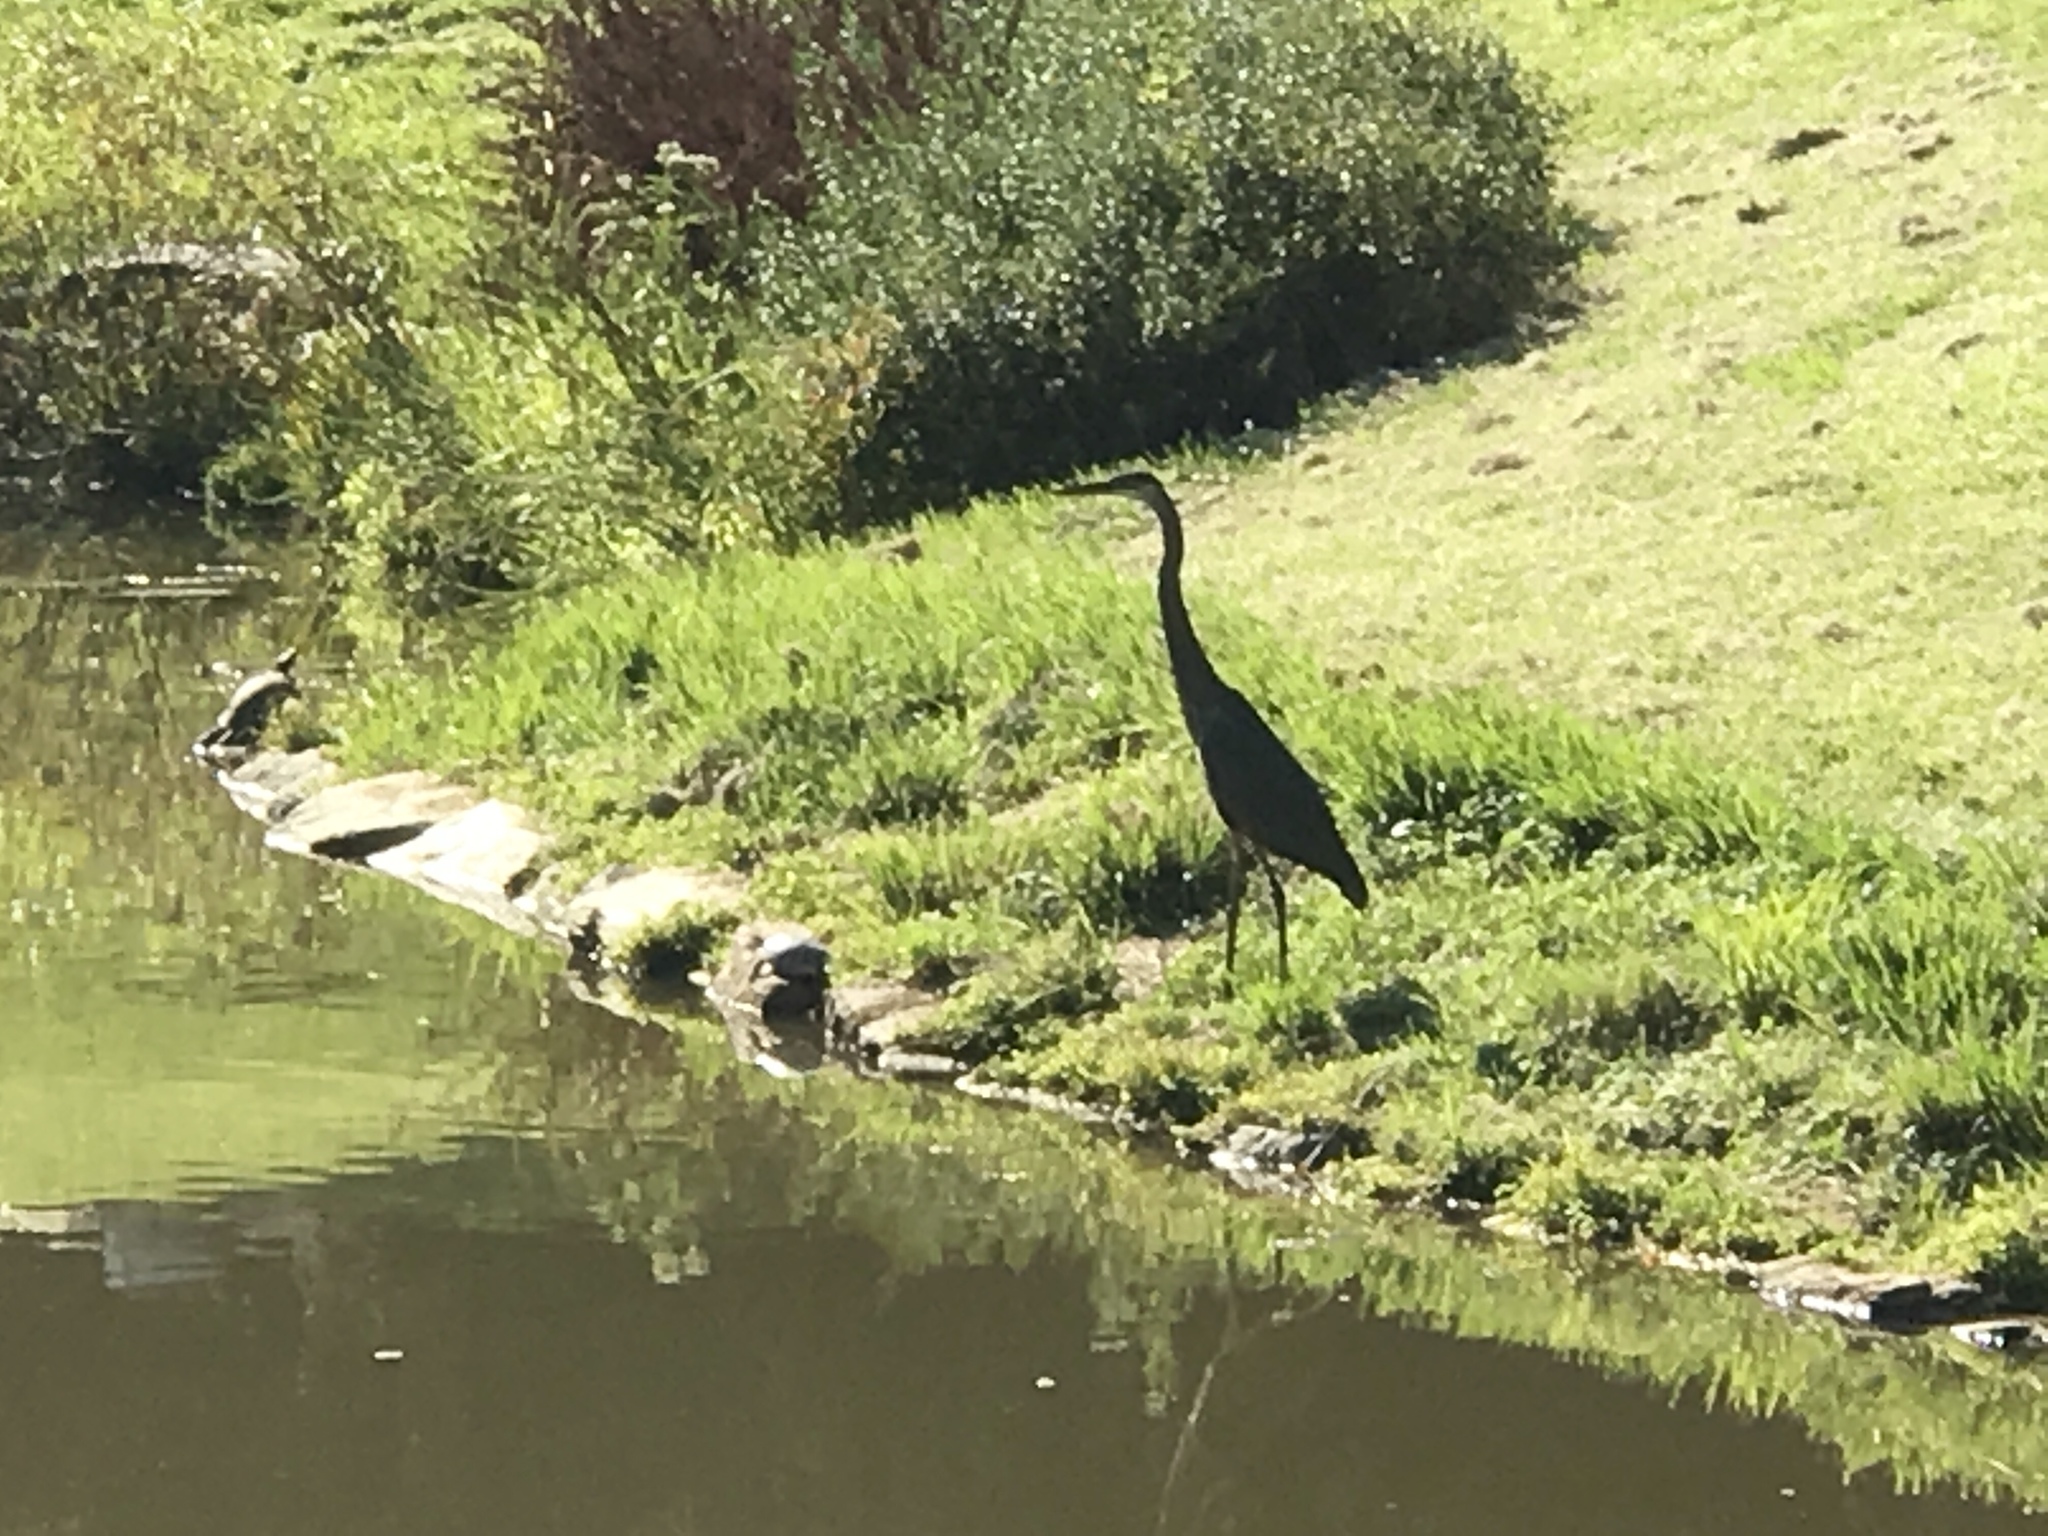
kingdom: Animalia
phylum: Chordata
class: Aves
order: Pelecaniformes
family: Ardeidae
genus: Ardea
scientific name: Ardea herodias
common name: Great blue heron
